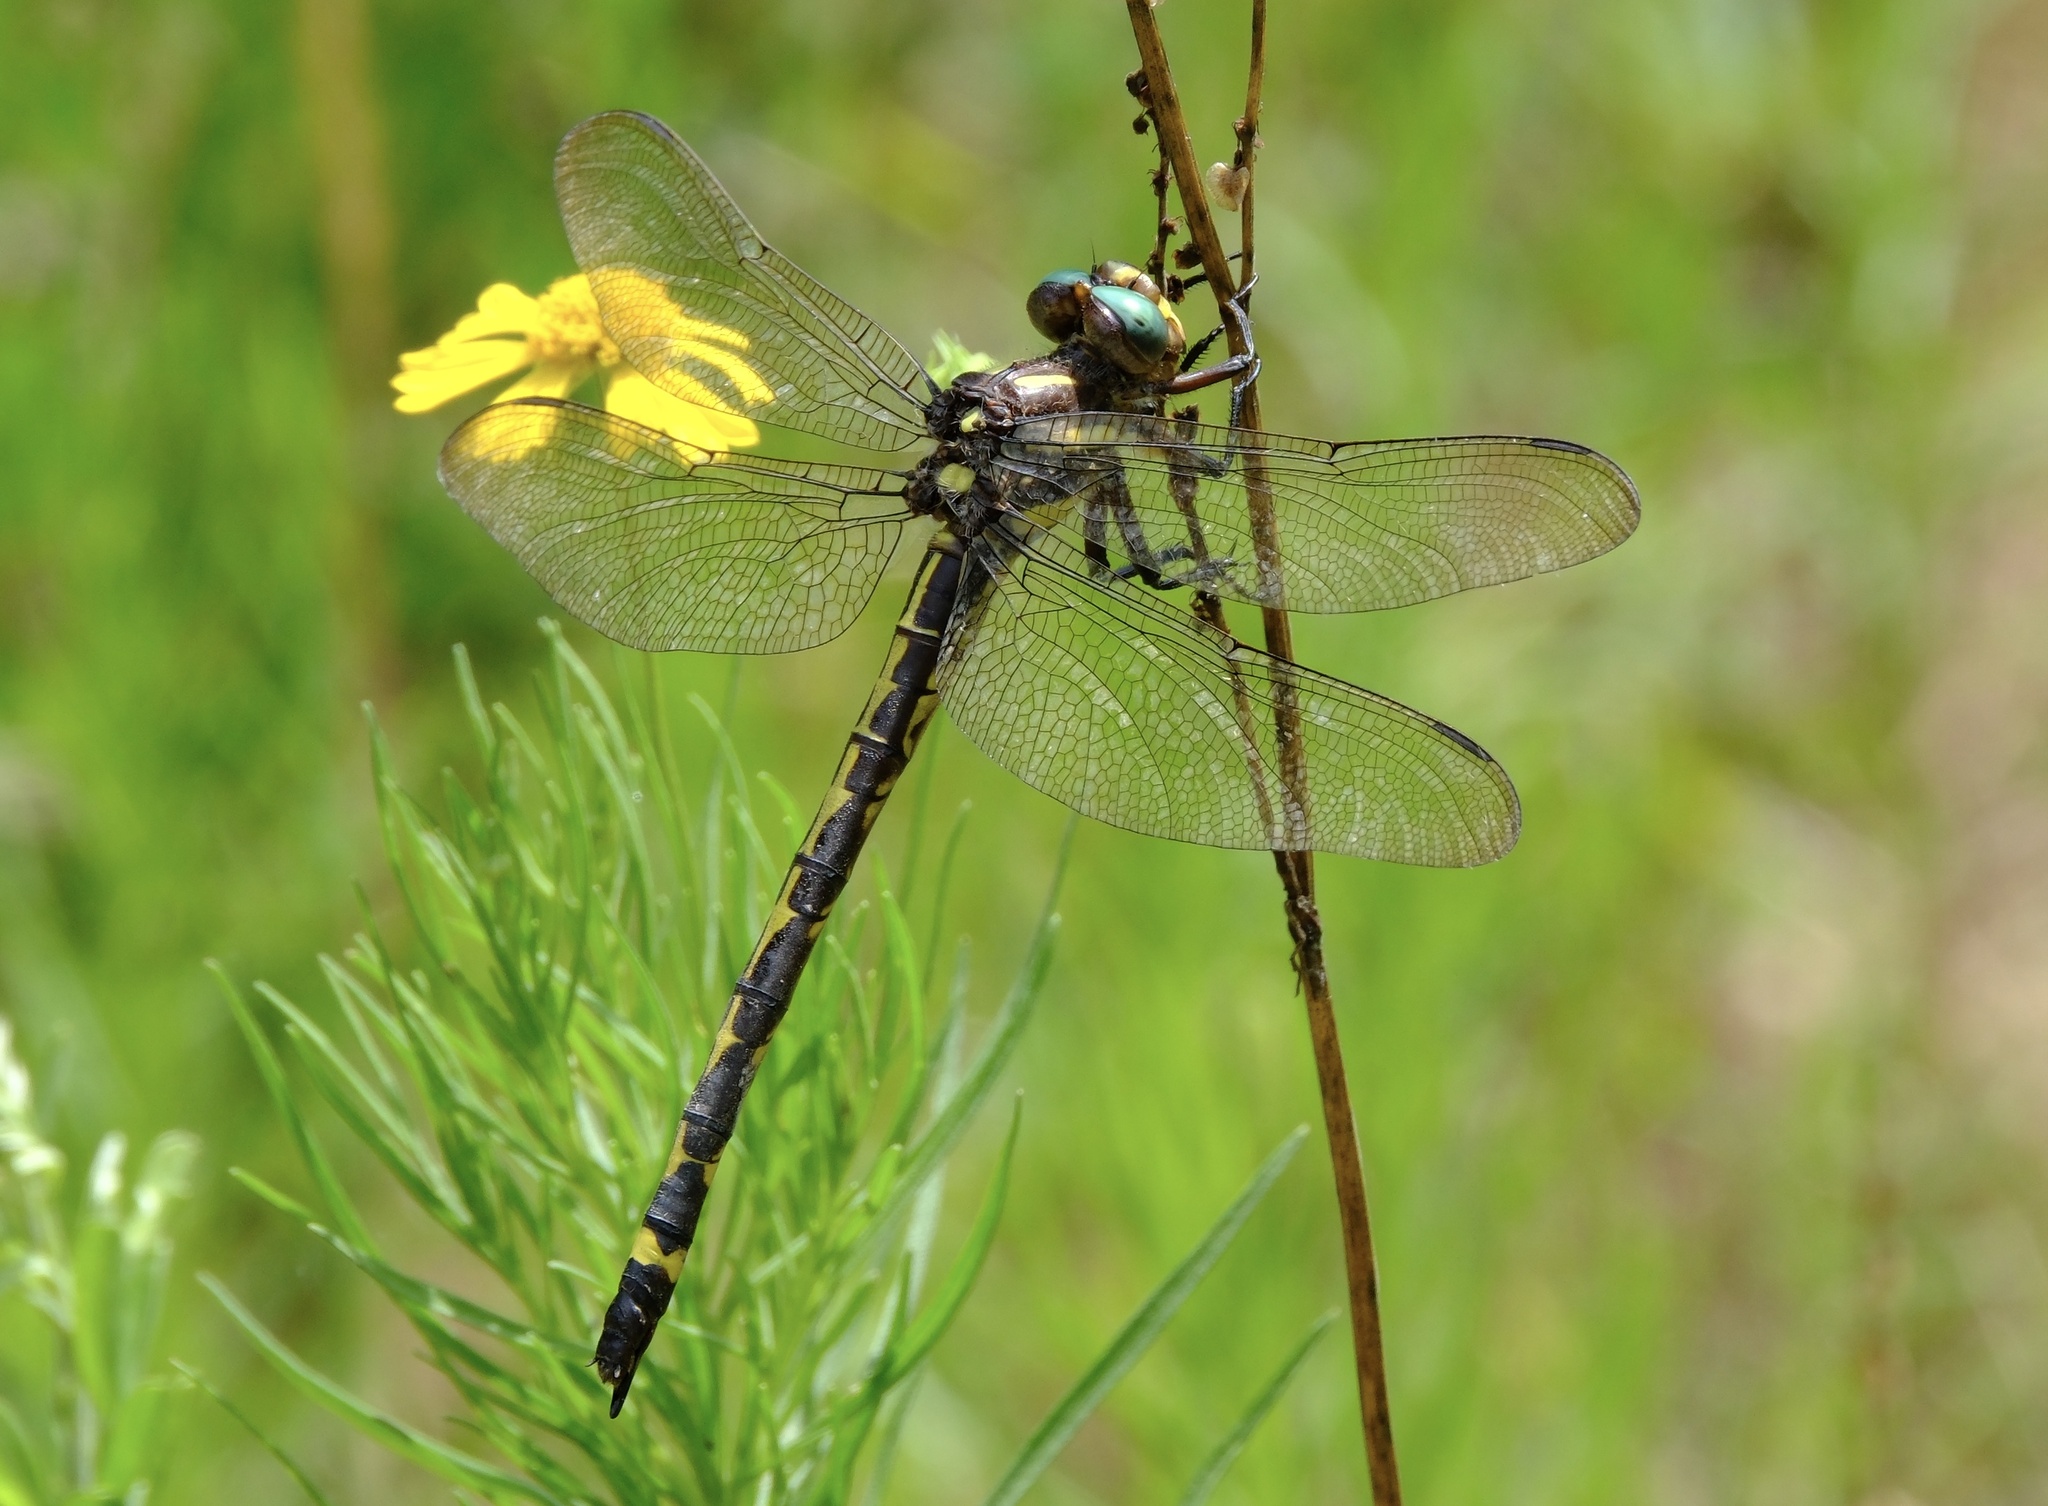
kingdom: Animalia
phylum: Arthropoda
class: Insecta
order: Odonata
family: Cordulegastridae
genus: Cordulegaster
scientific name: Cordulegaster obliqua
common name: Arrowhead spiketail
